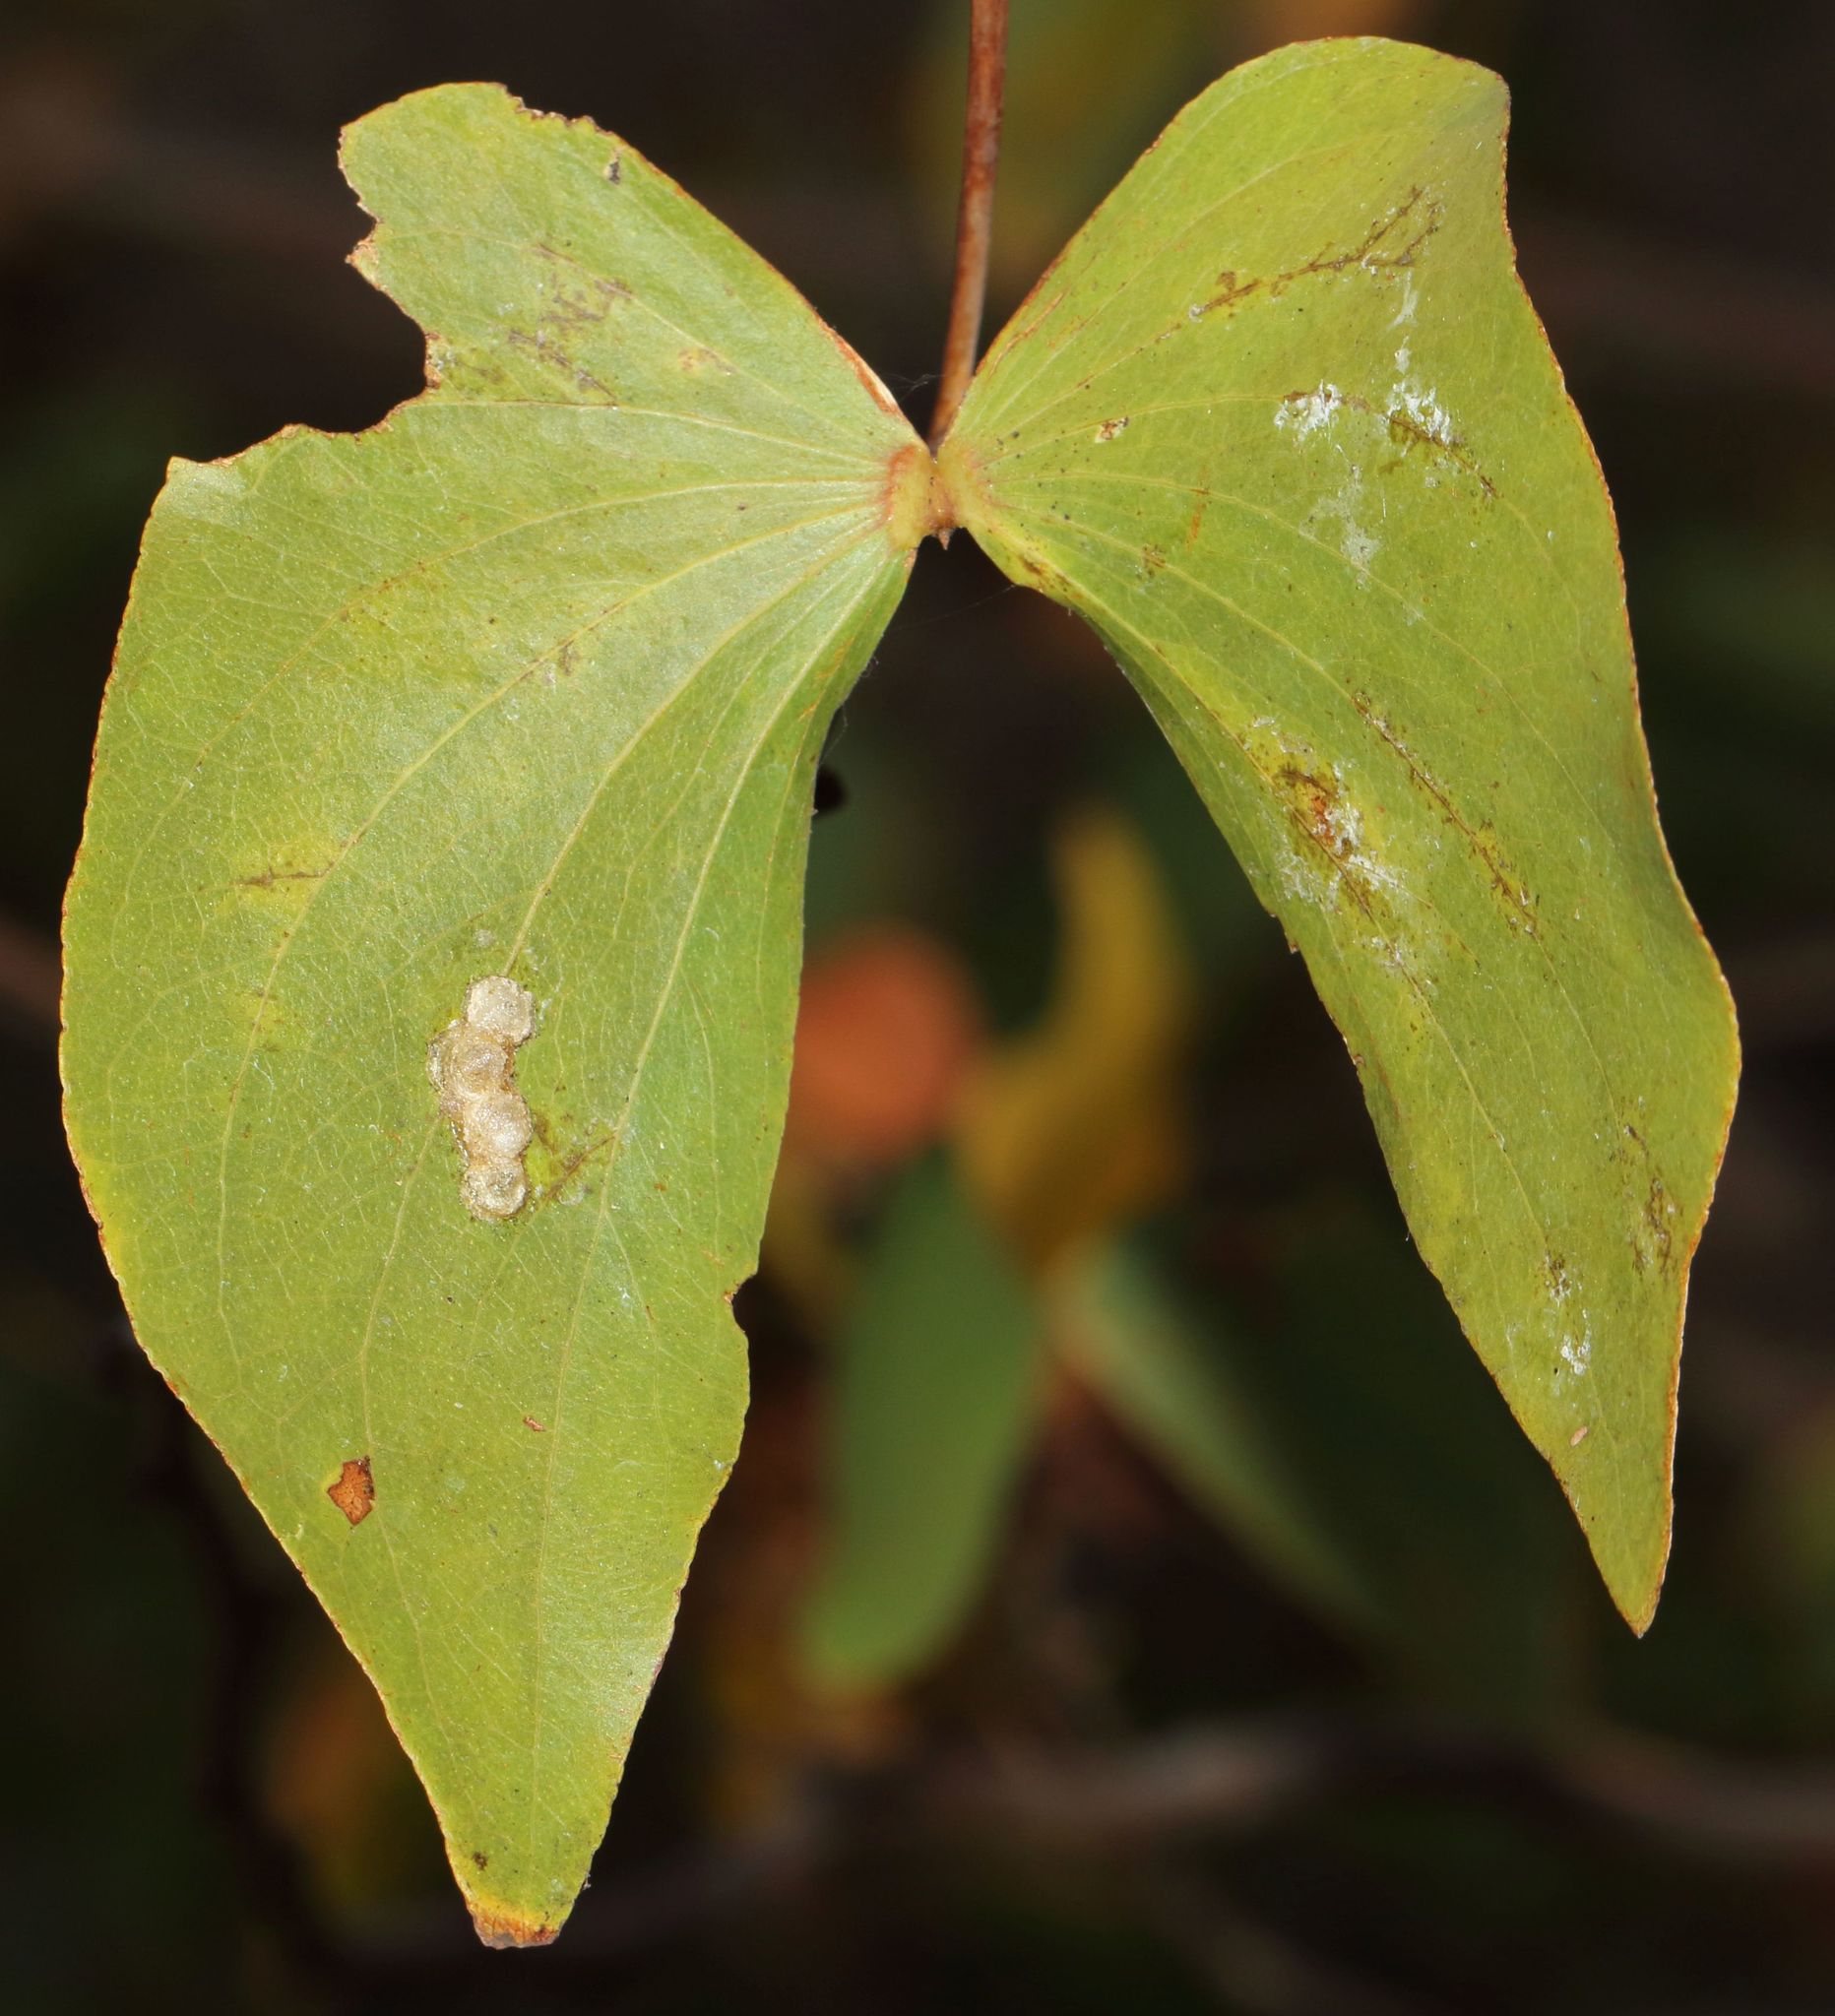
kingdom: Plantae
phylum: Tracheophyta
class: Magnoliopsida
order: Fabales
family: Fabaceae
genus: Colophospermum
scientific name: Colophospermum mopane
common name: Mopane
